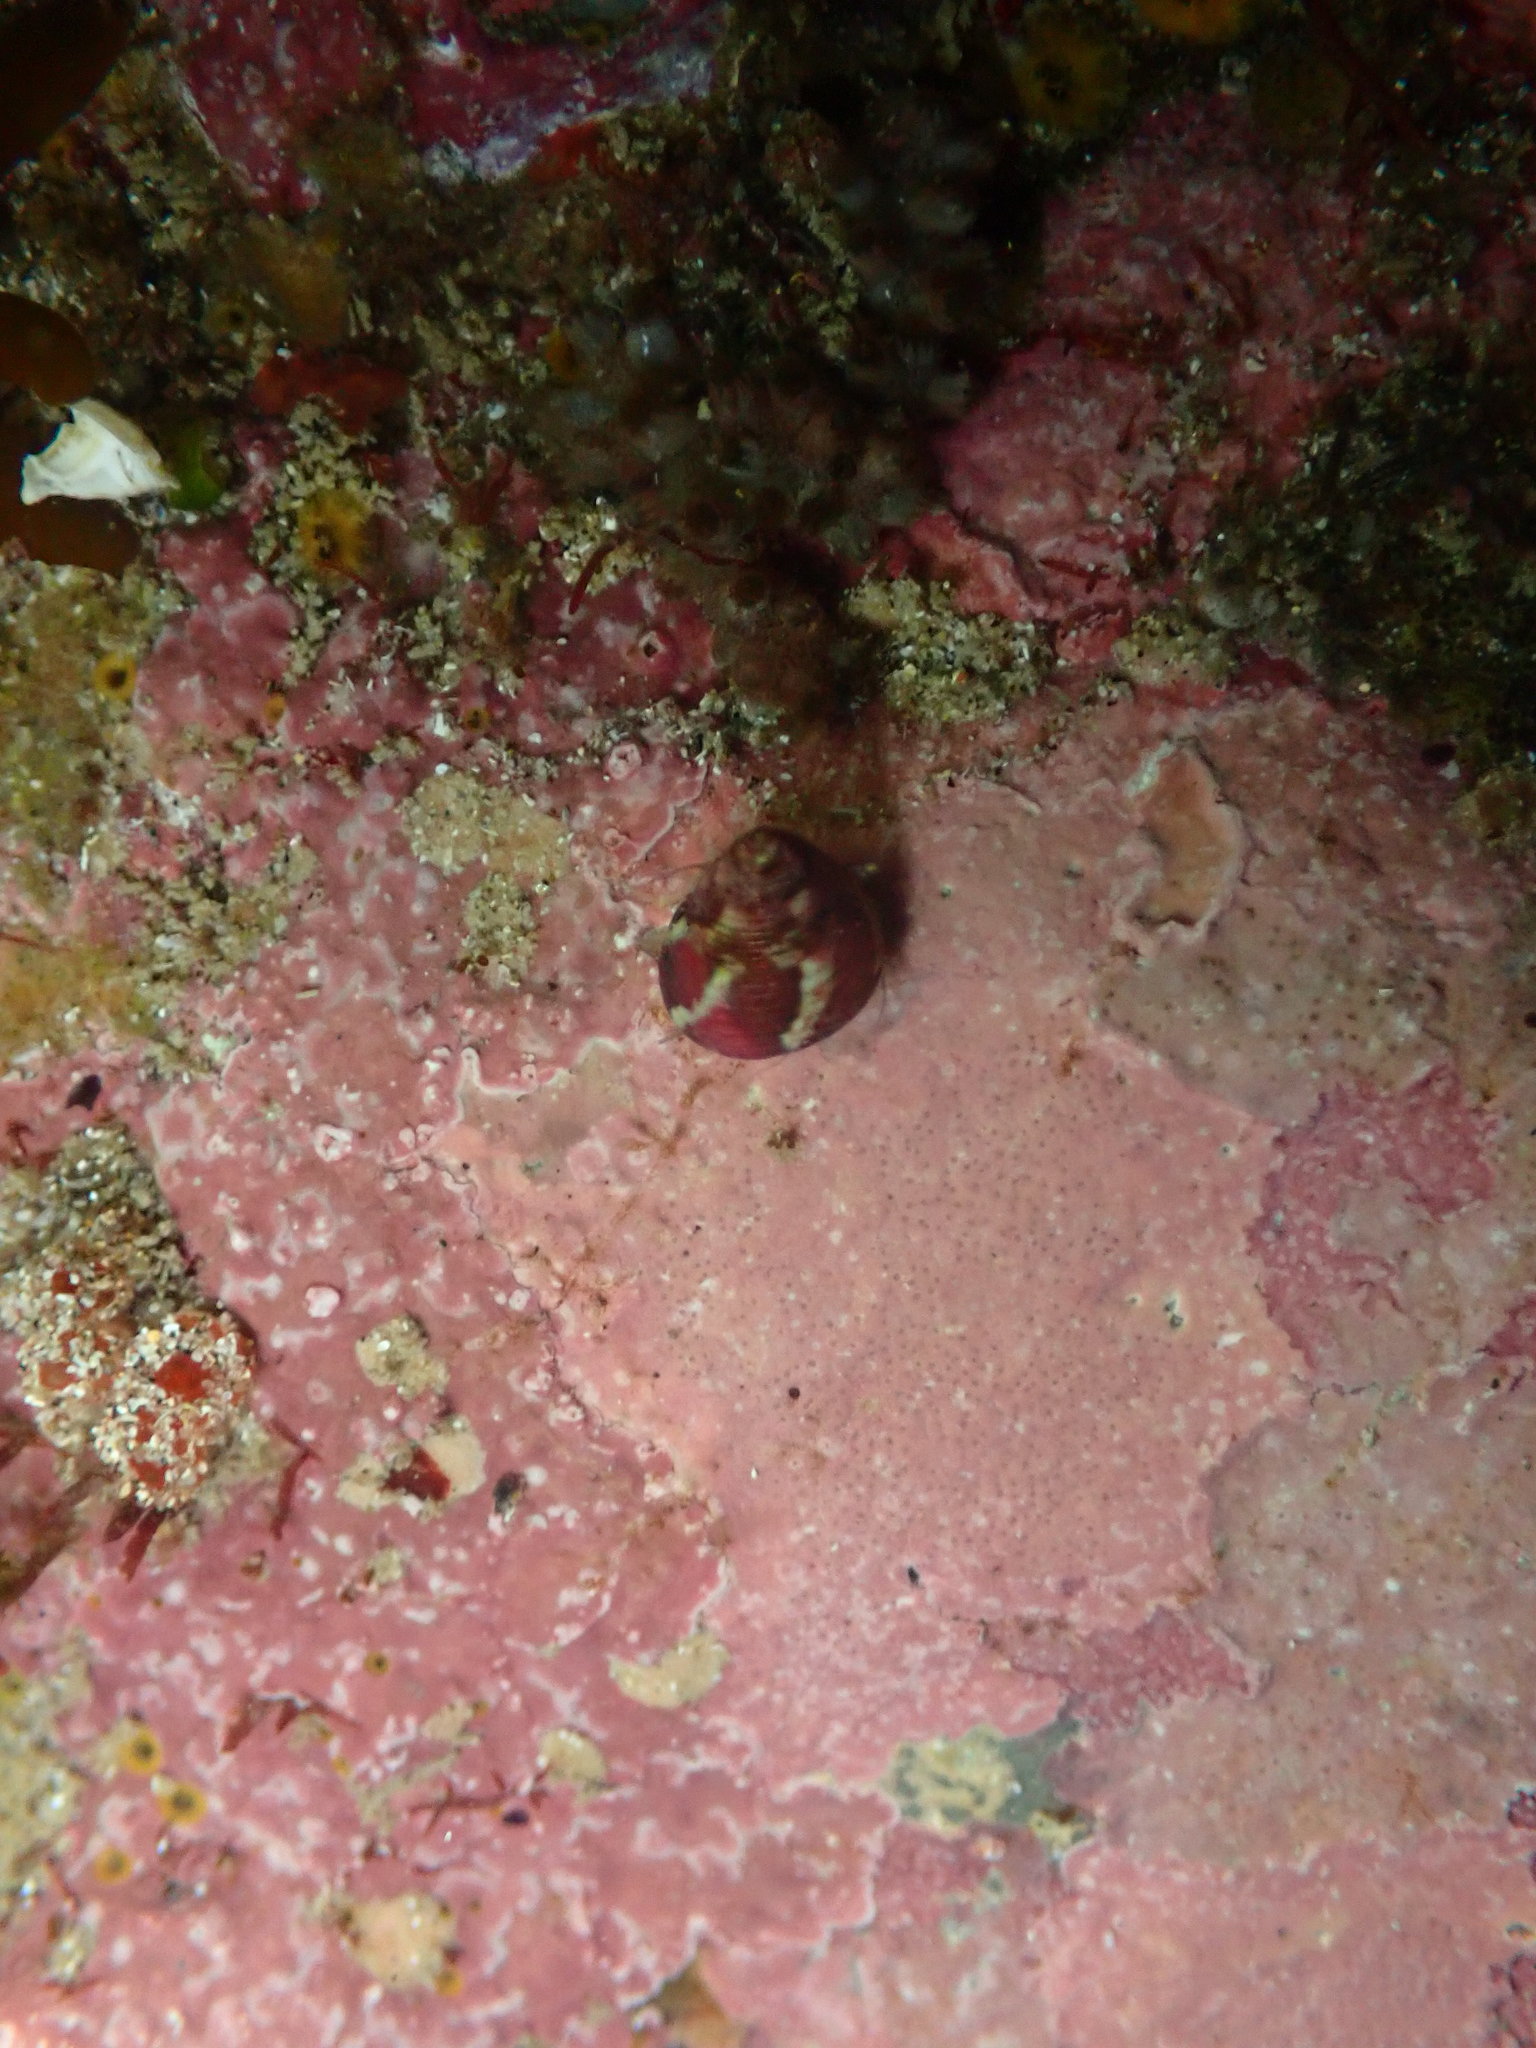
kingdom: Animalia
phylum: Mollusca
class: Gastropoda
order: Trochida
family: Trochidae
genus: Micrelenchus
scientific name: Micrelenchus sanguineus
